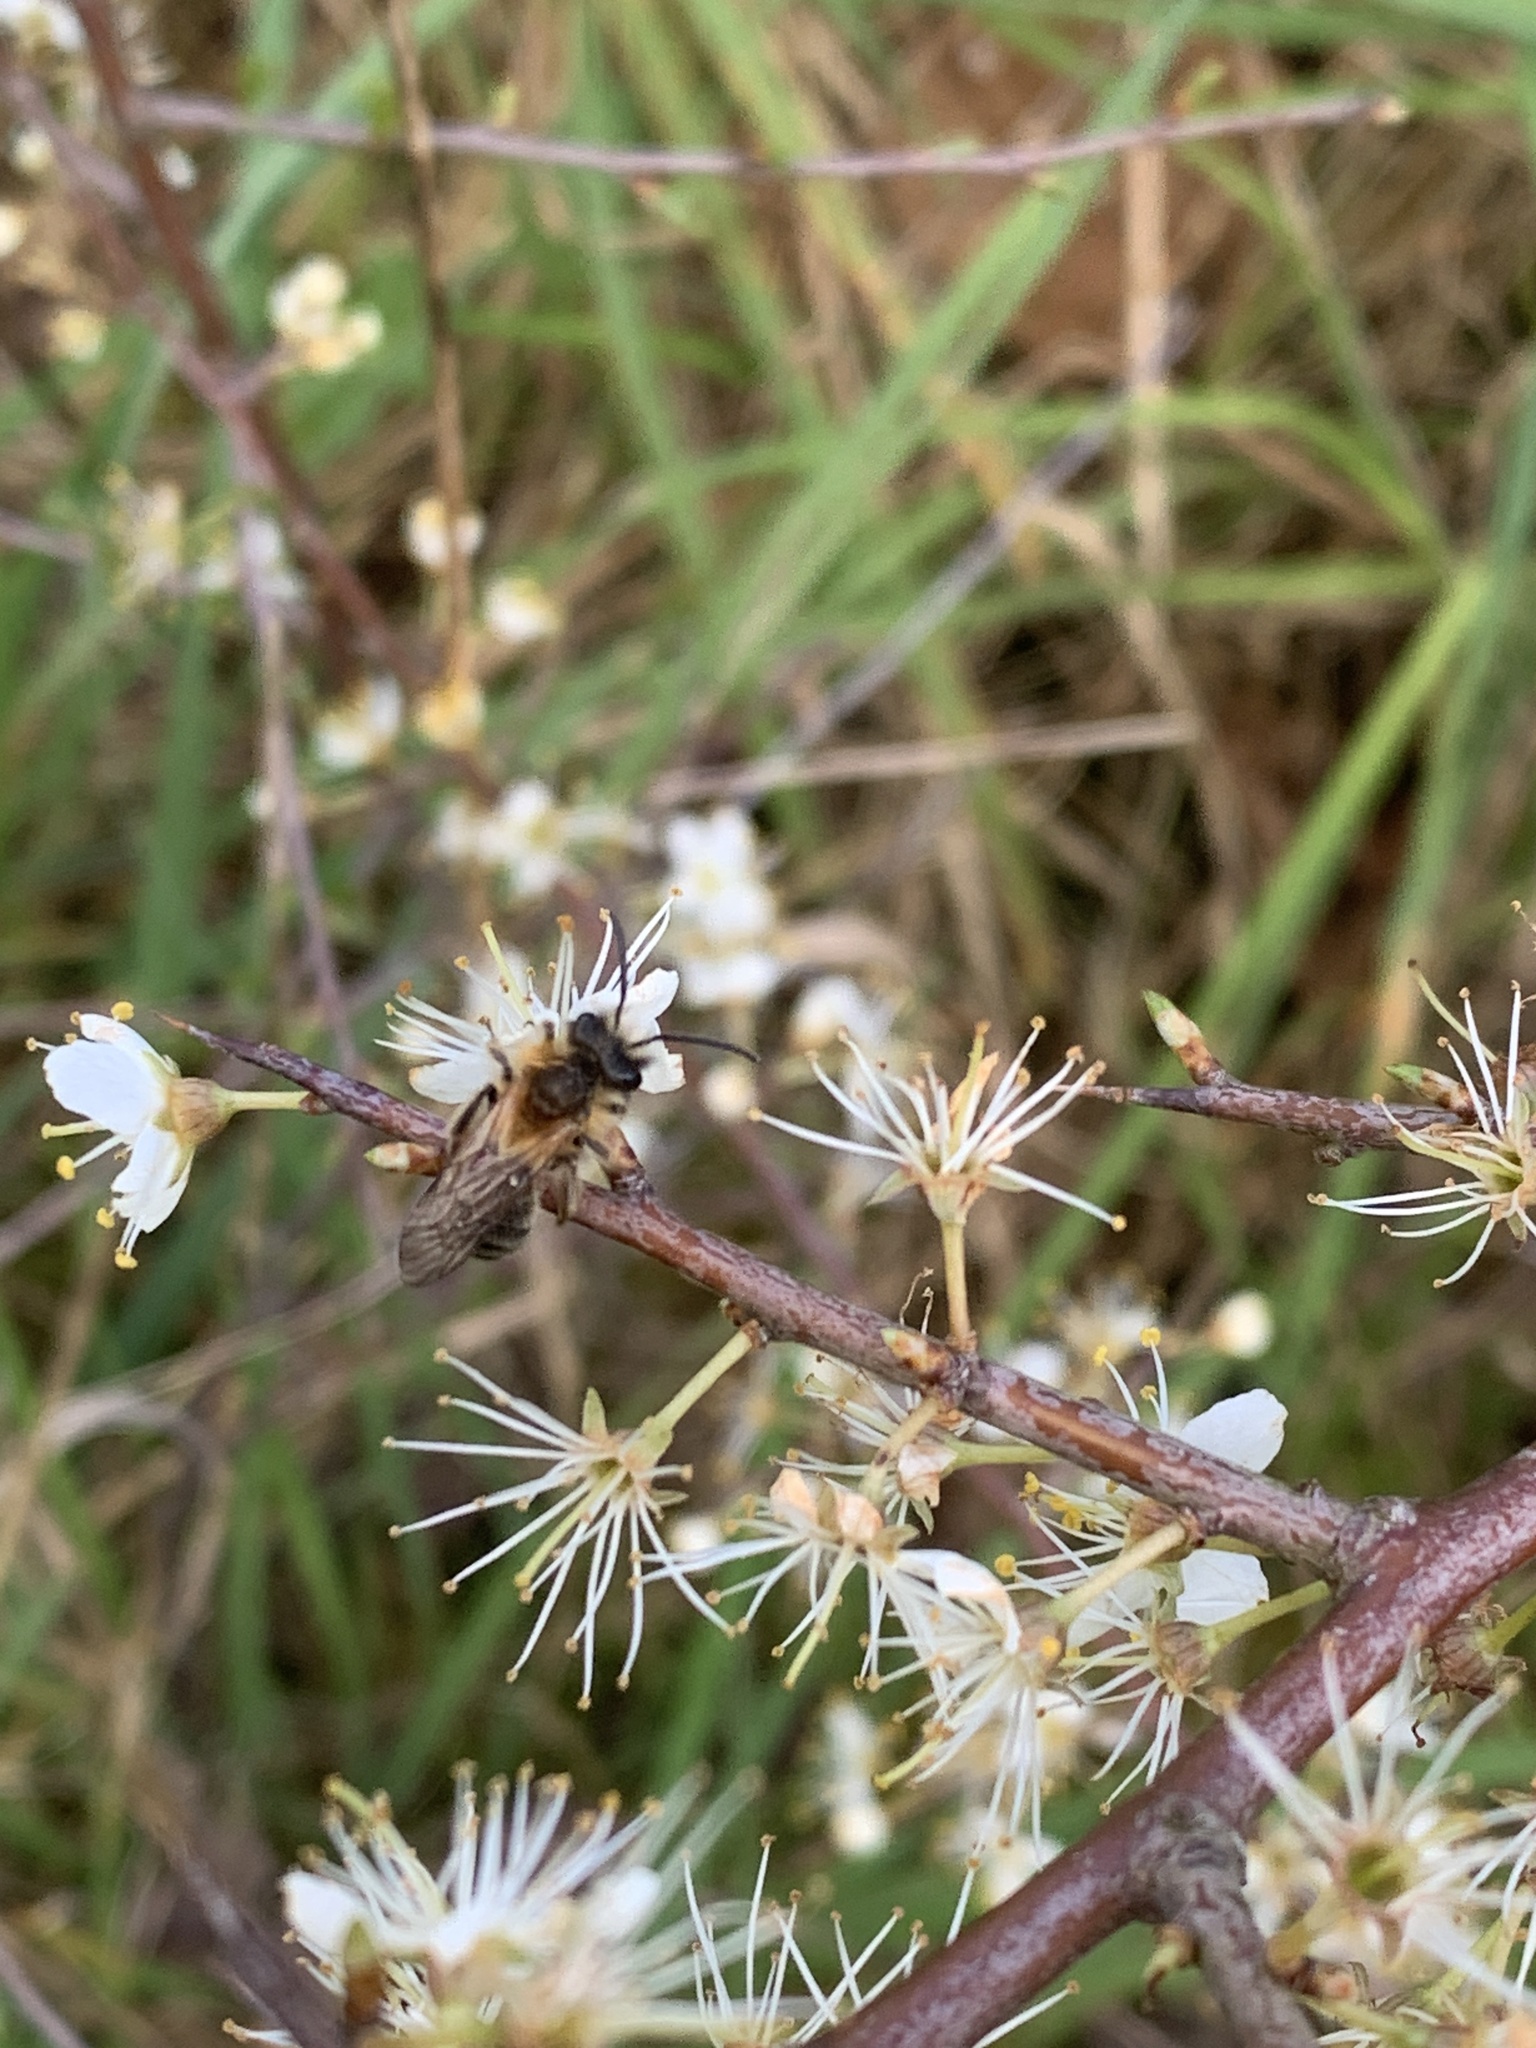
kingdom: Animalia
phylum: Arthropoda
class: Insecta
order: Hymenoptera
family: Andrenidae
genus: Andrena
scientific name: Andrena fulva
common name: Tawny mining bee
